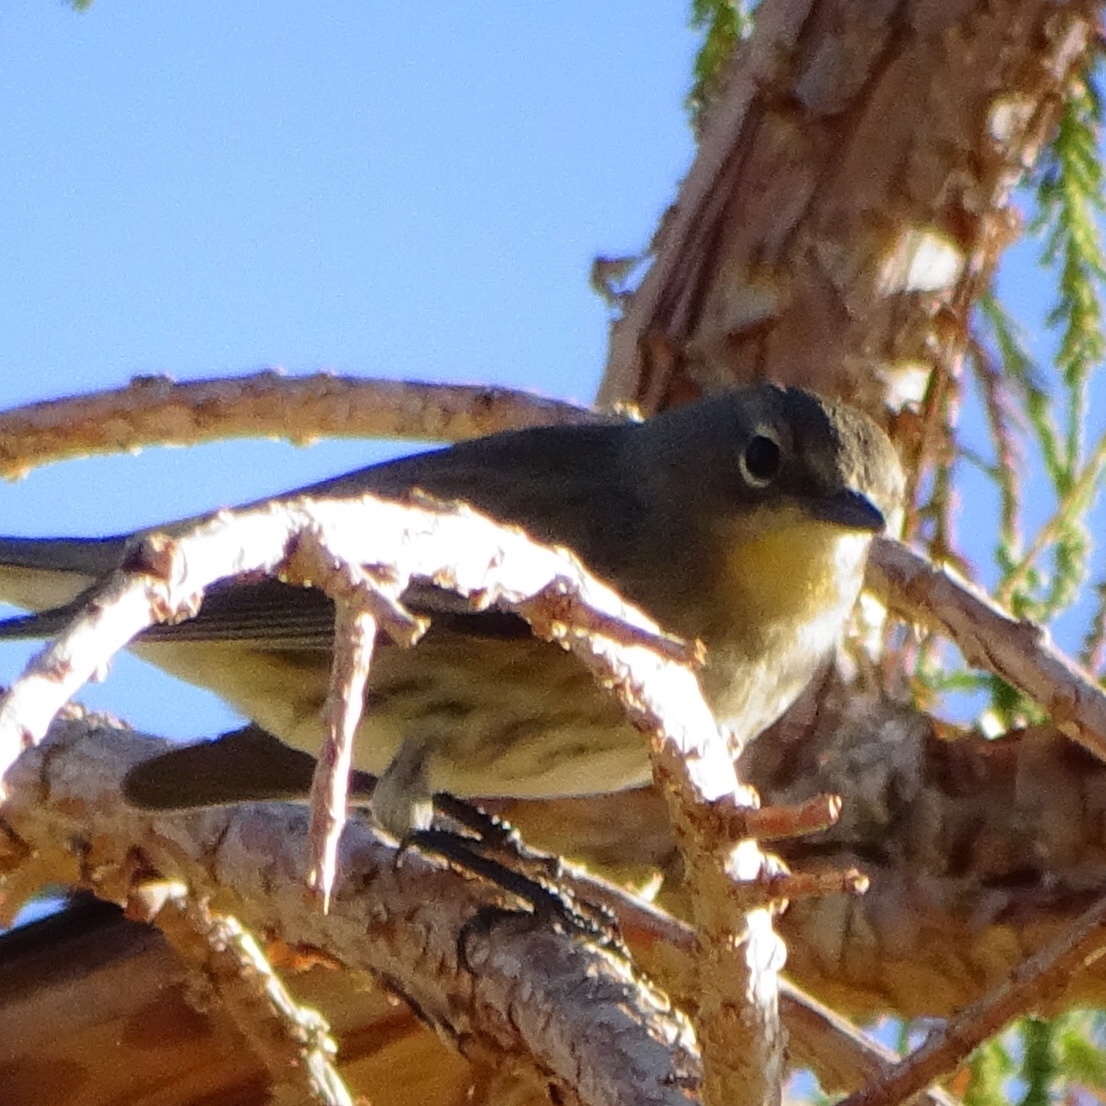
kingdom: Animalia
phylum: Chordata
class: Aves
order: Passeriformes
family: Parulidae
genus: Setophaga
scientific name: Setophaga coronata
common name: Myrtle warbler
